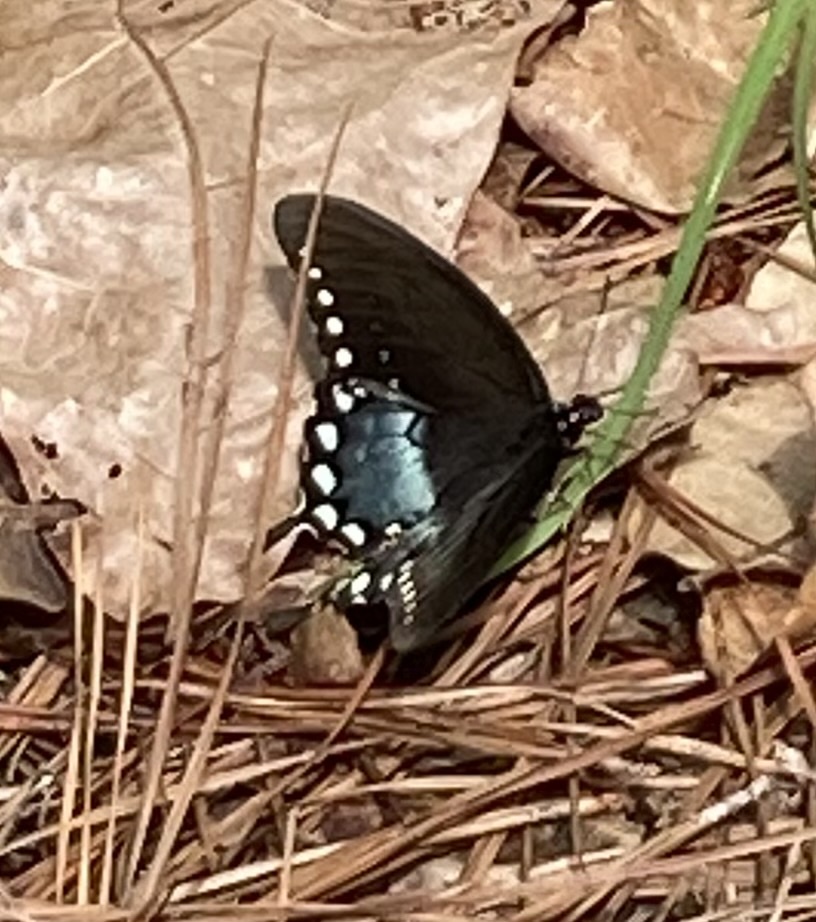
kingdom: Animalia
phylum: Arthropoda
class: Insecta
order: Lepidoptera
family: Papilionidae
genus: Papilio
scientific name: Papilio troilus
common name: Spicebush swallowtail
